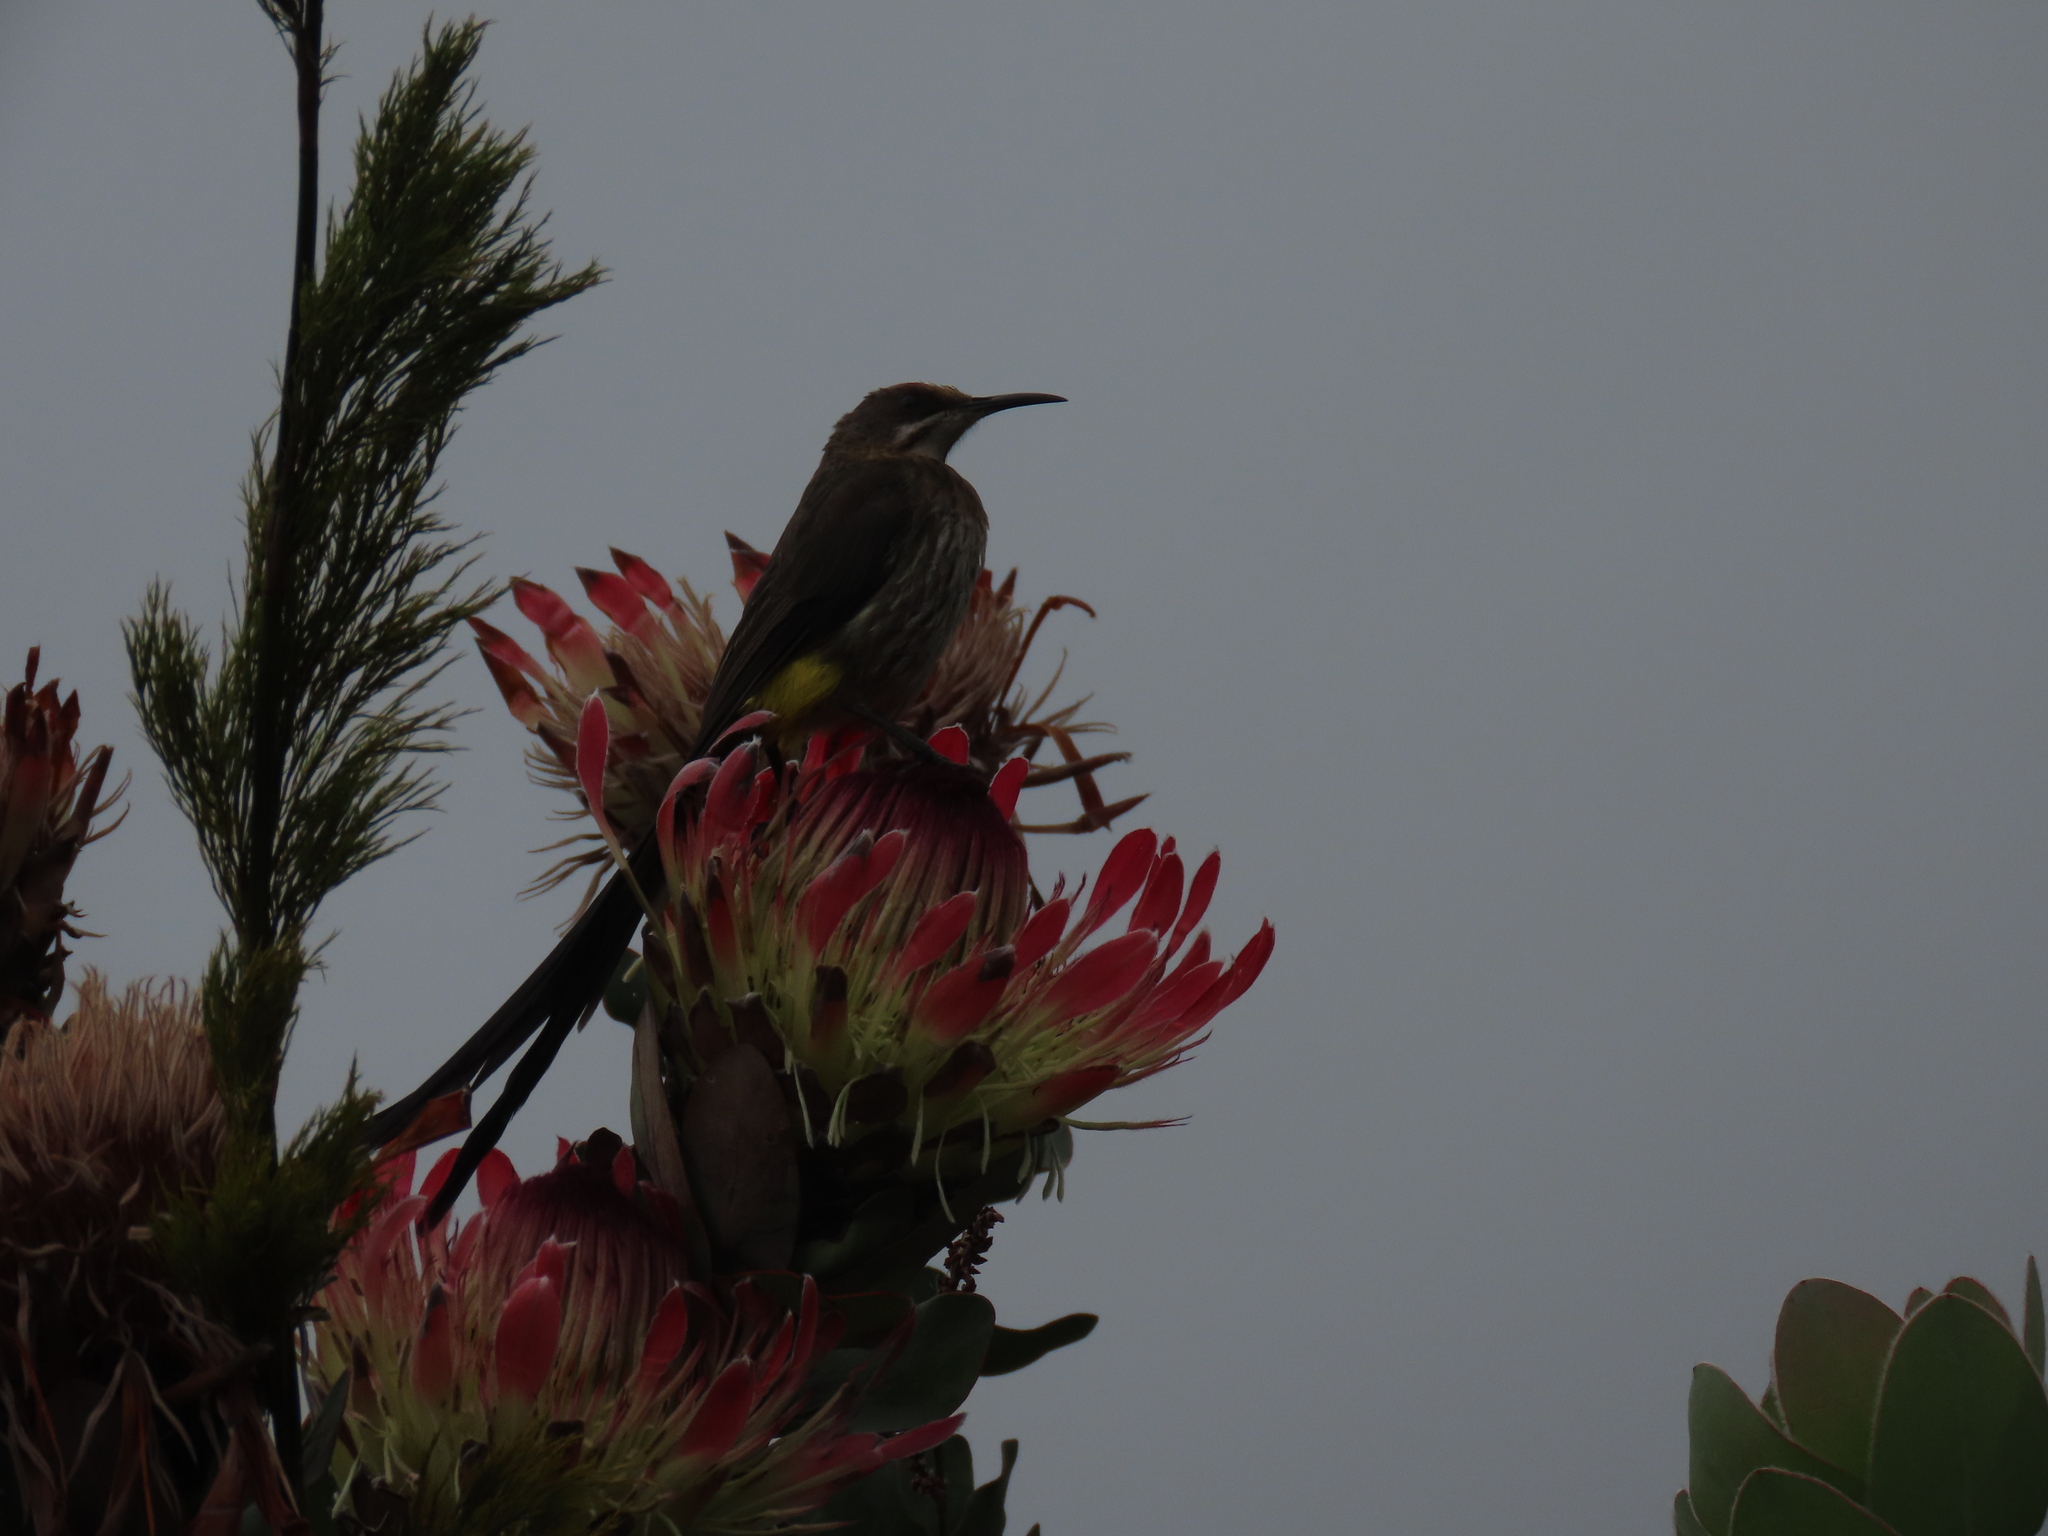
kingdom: Animalia
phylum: Chordata
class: Aves
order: Passeriformes
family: Promeropidae
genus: Promerops
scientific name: Promerops cafer
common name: Cape sugarbird
